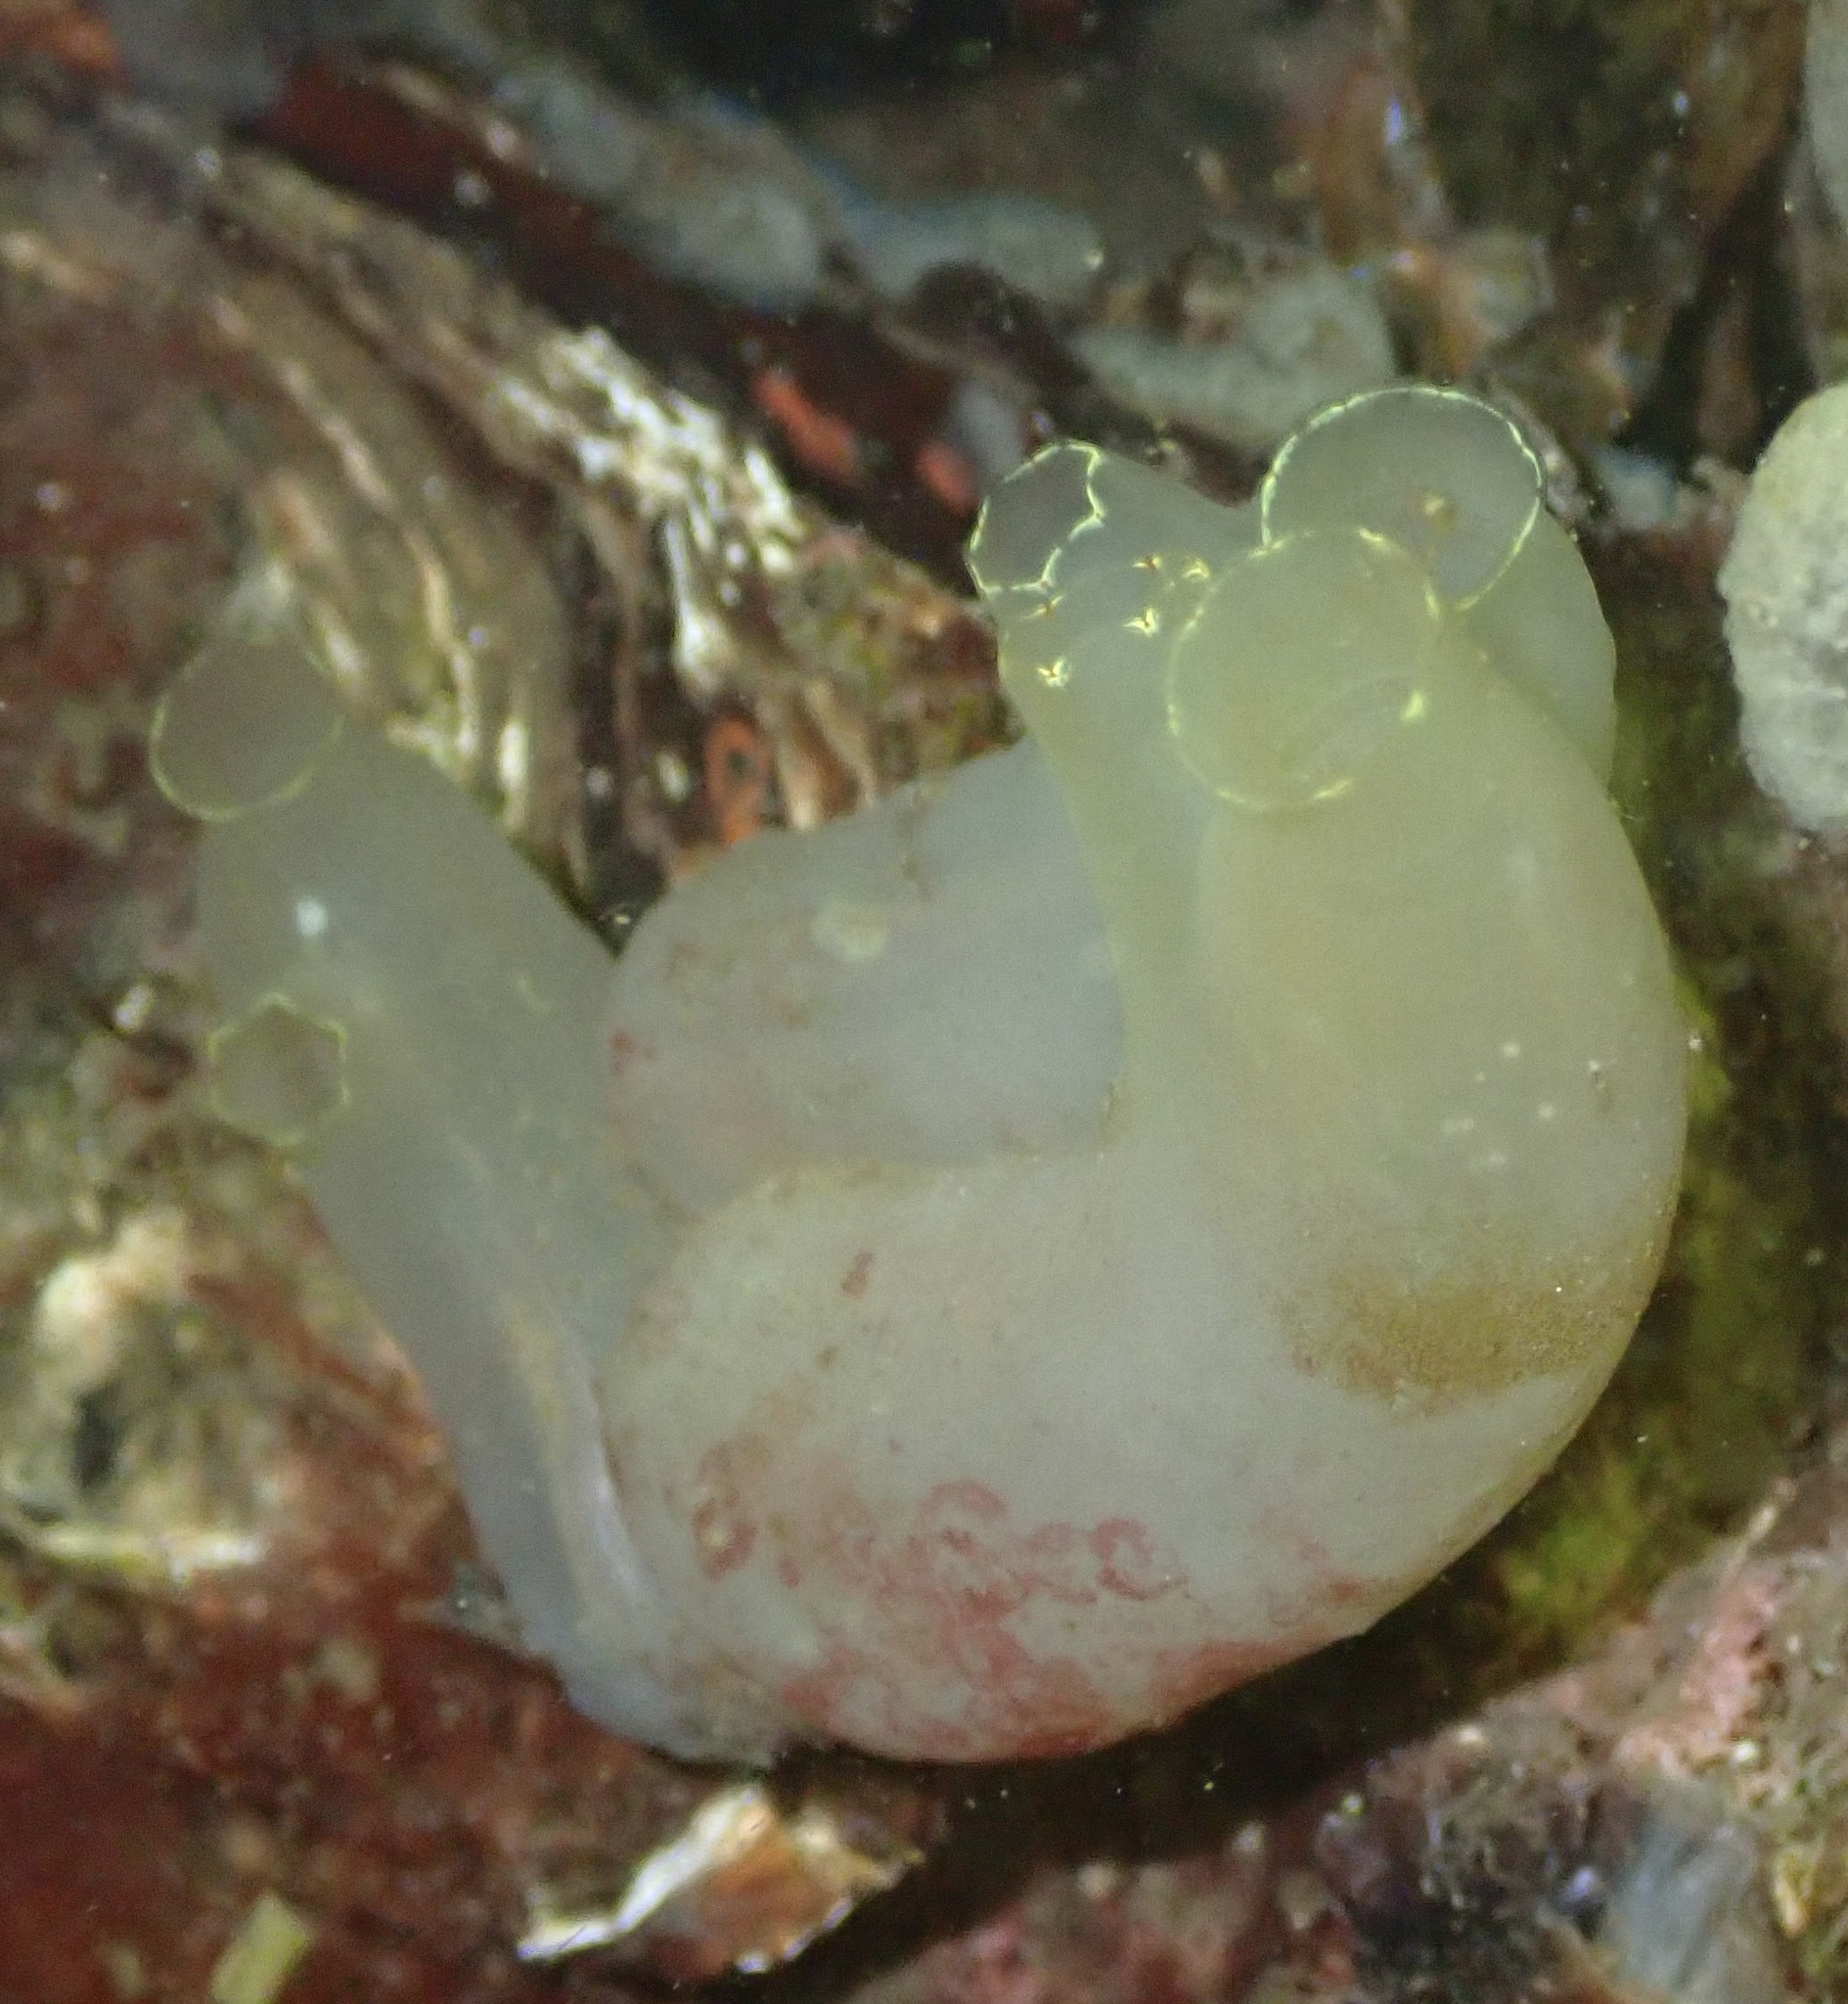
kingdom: Animalia
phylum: Chordata
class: Ascidiacea
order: Phlebobranchia
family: Cionidae
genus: Ciona
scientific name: Ciona intestinalis
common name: Vase tunicate
